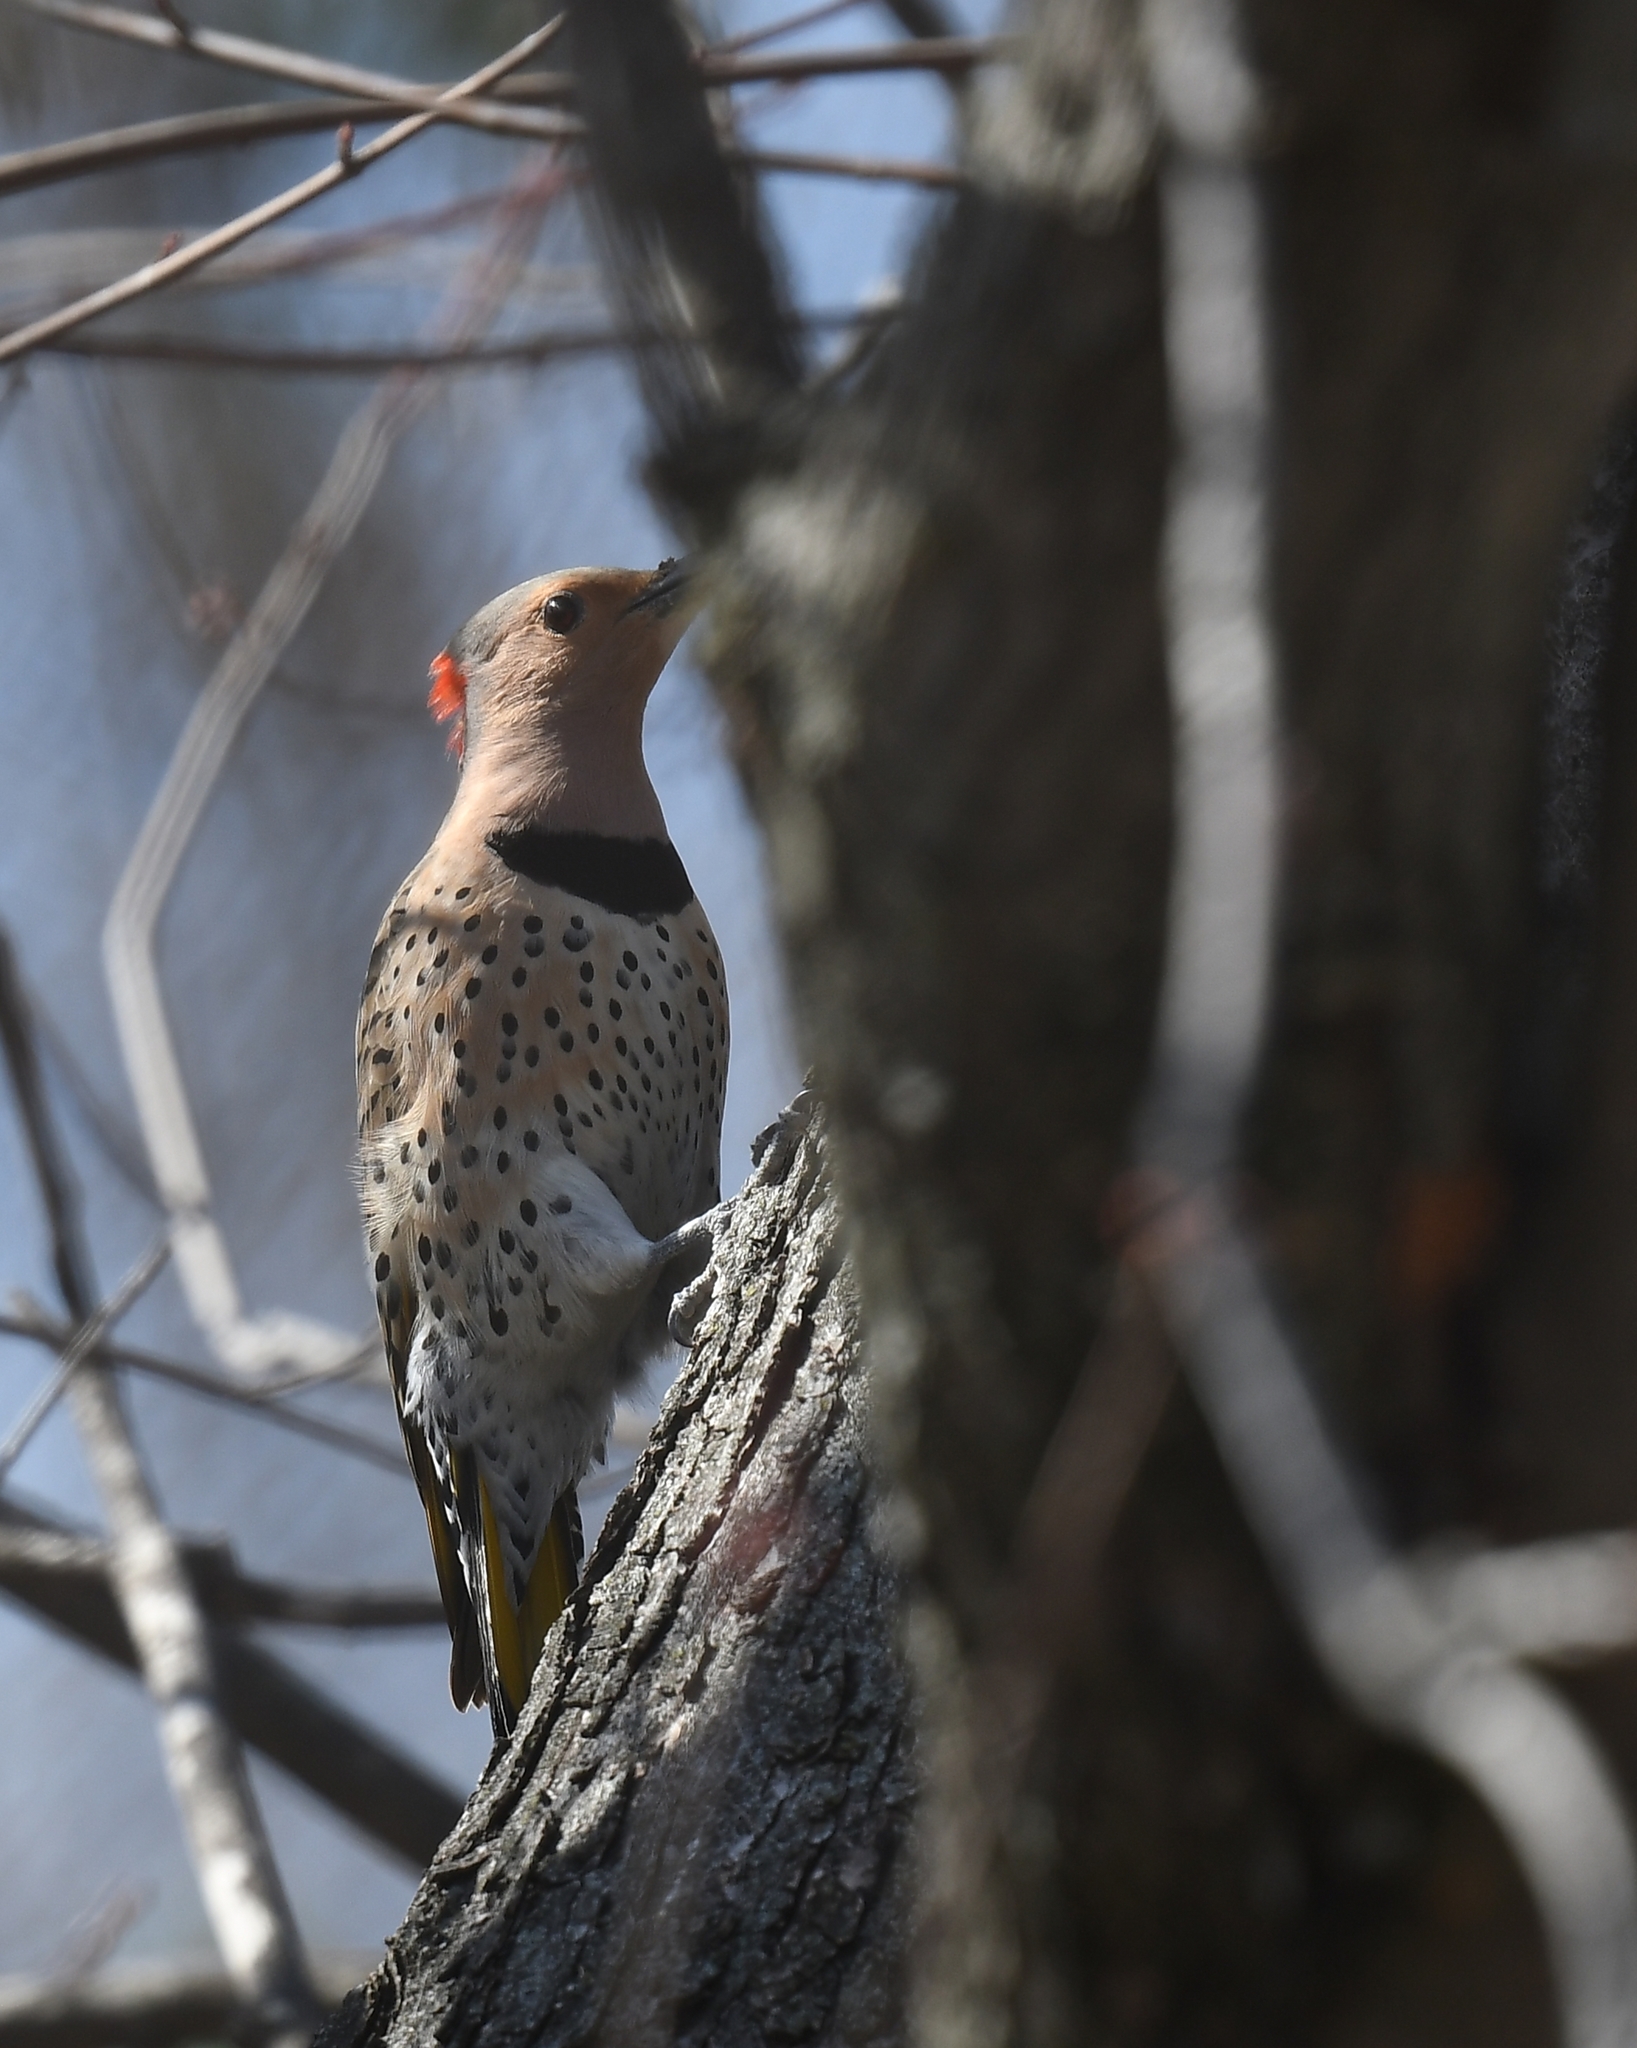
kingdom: Animalia
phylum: Chordata
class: Aves
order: Piciformes
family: Picidae
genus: Colaptes
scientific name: Colaptes auratus
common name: Northern flicker
